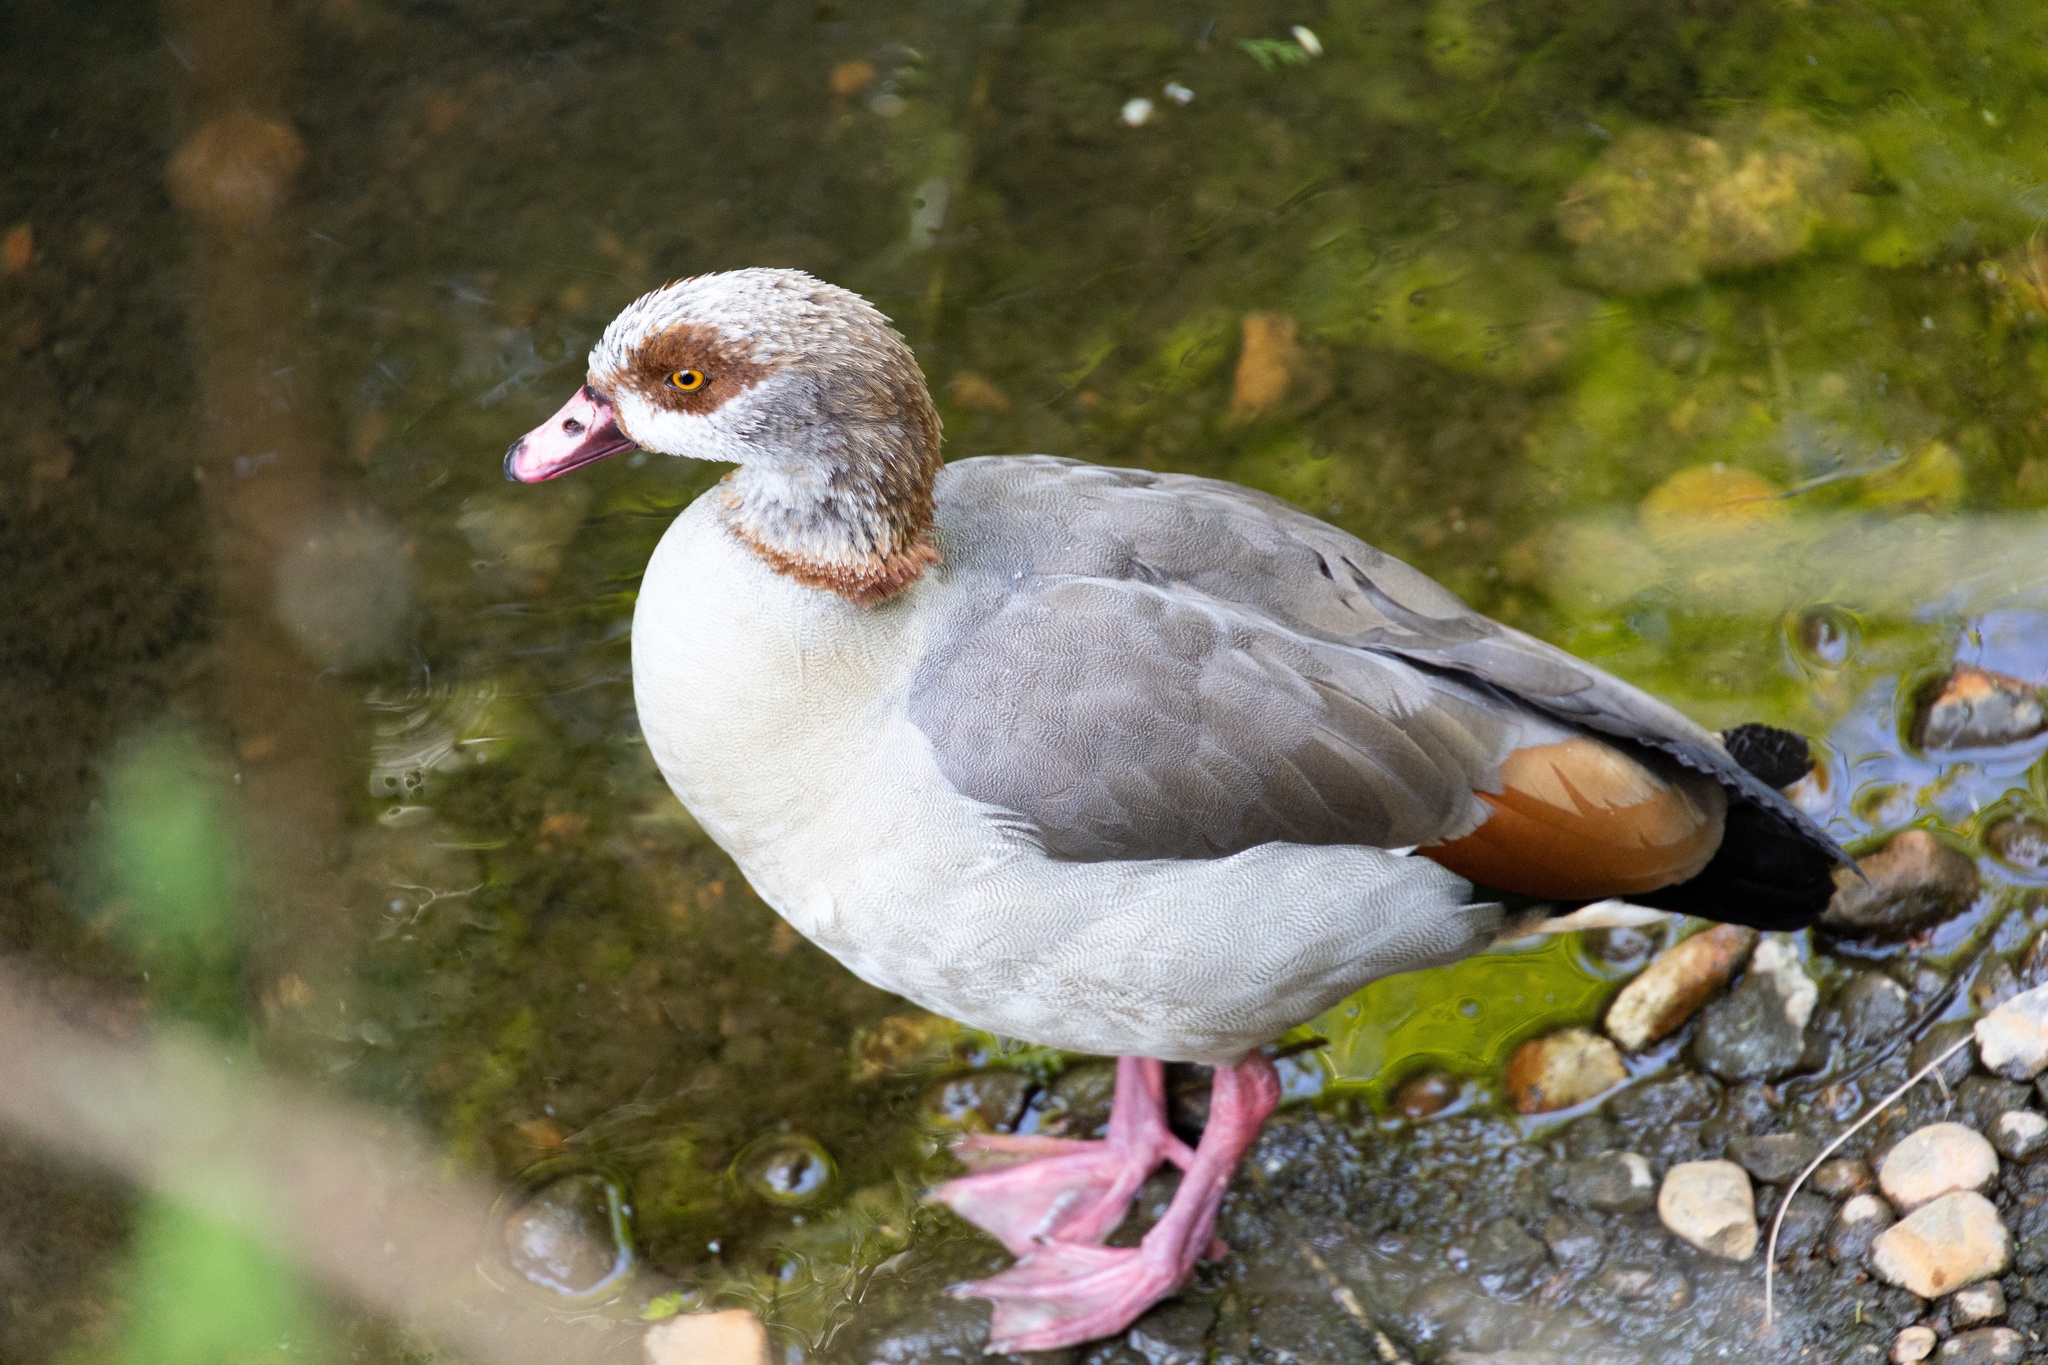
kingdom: Animalia
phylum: Chordata
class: Aves
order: Anseriformes
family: Anatidae
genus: Alopochen
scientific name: Alopochen aegyptiaca
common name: Egyptian goose
